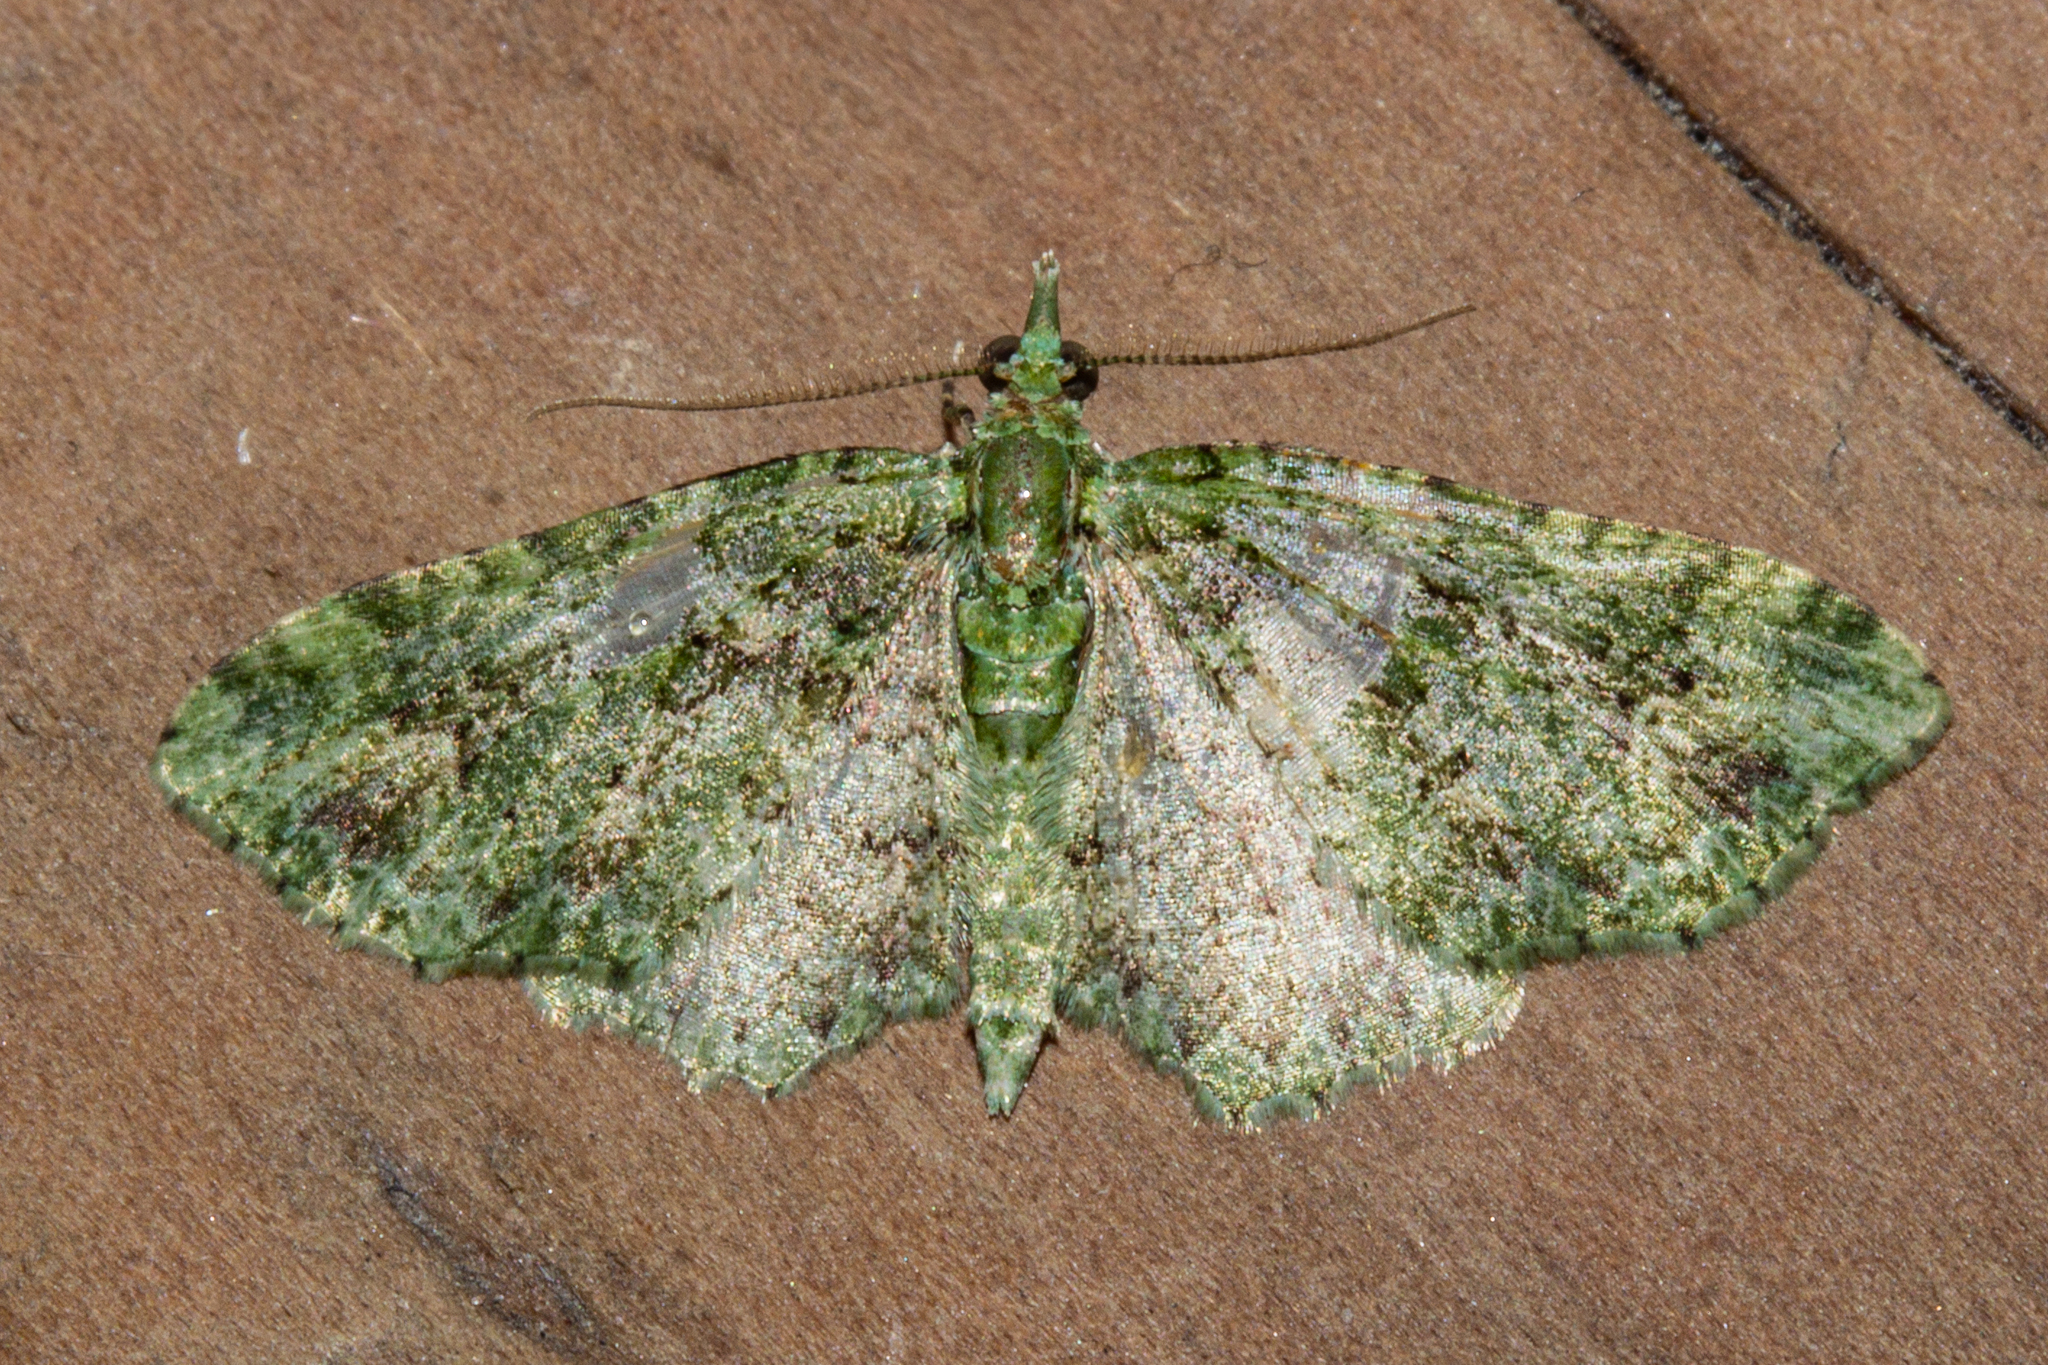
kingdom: Animalia
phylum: Arthropoda
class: Insecta
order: Lepidoptera
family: Geometridae
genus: Pasiphila
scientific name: Pasiphila muscosata
